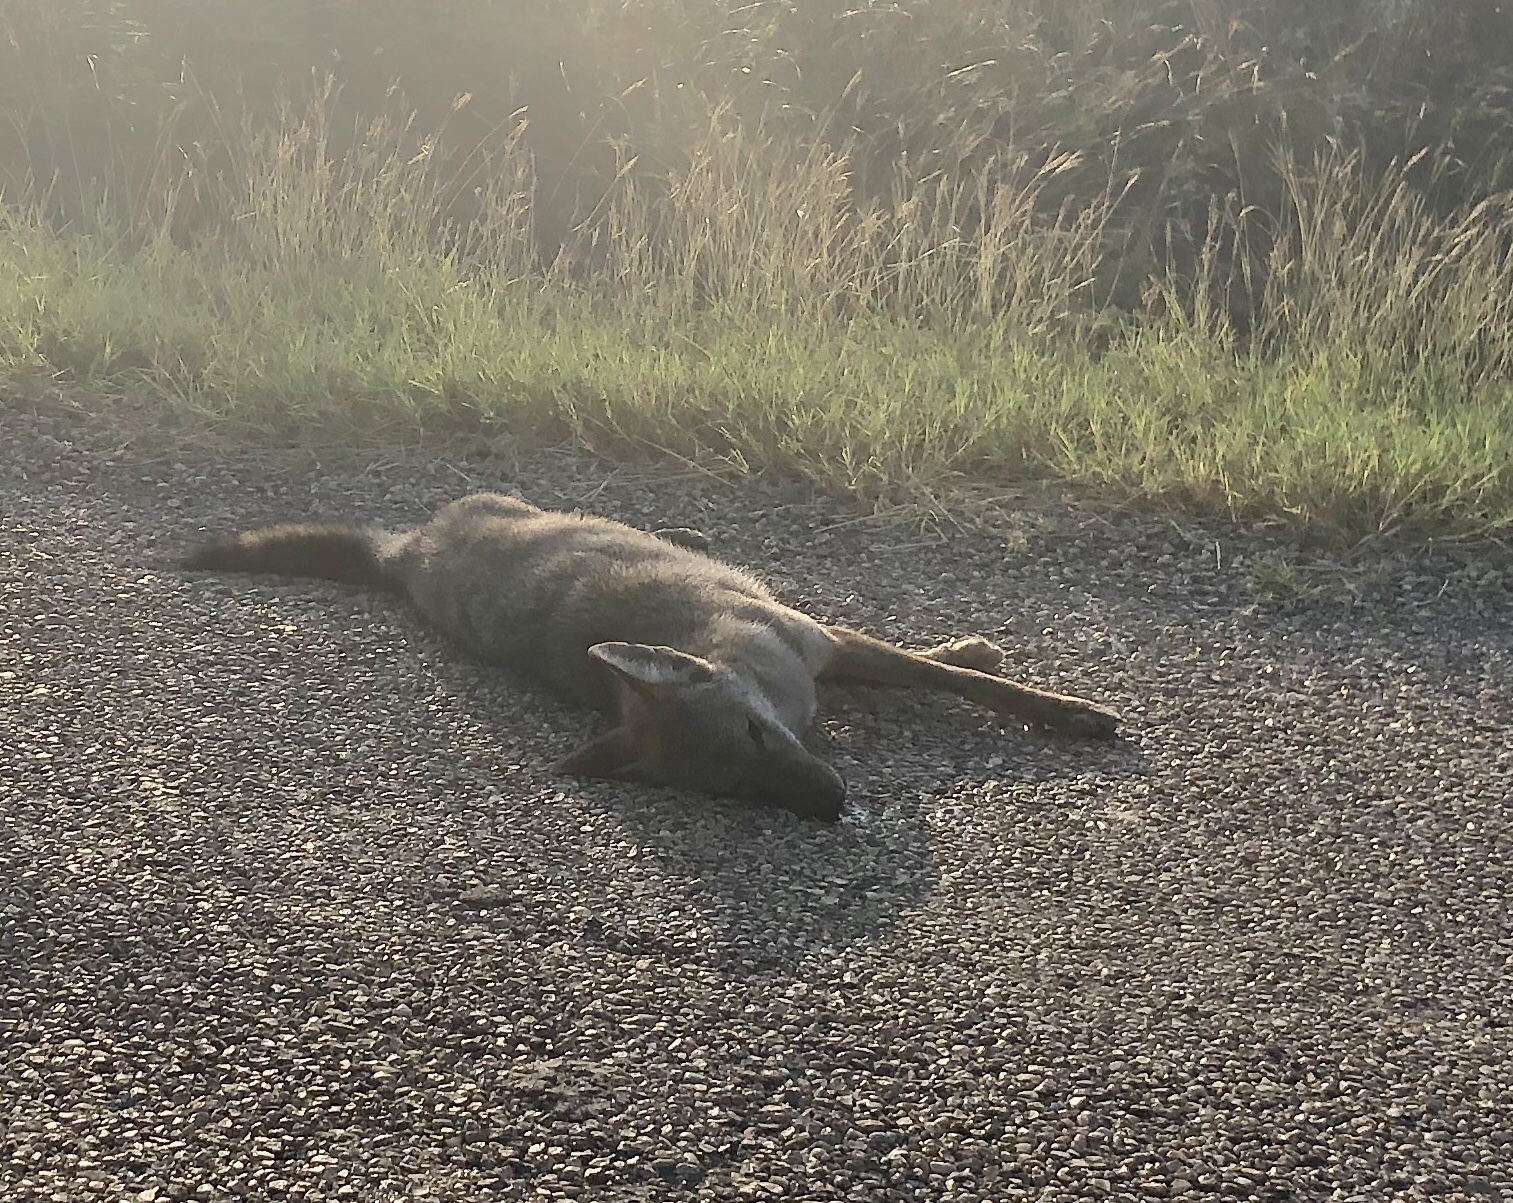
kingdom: Animalia
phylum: Chordata
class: Mammalia
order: Carnivora
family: Canidae
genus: Canis
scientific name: Canis latrans
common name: Coyote
